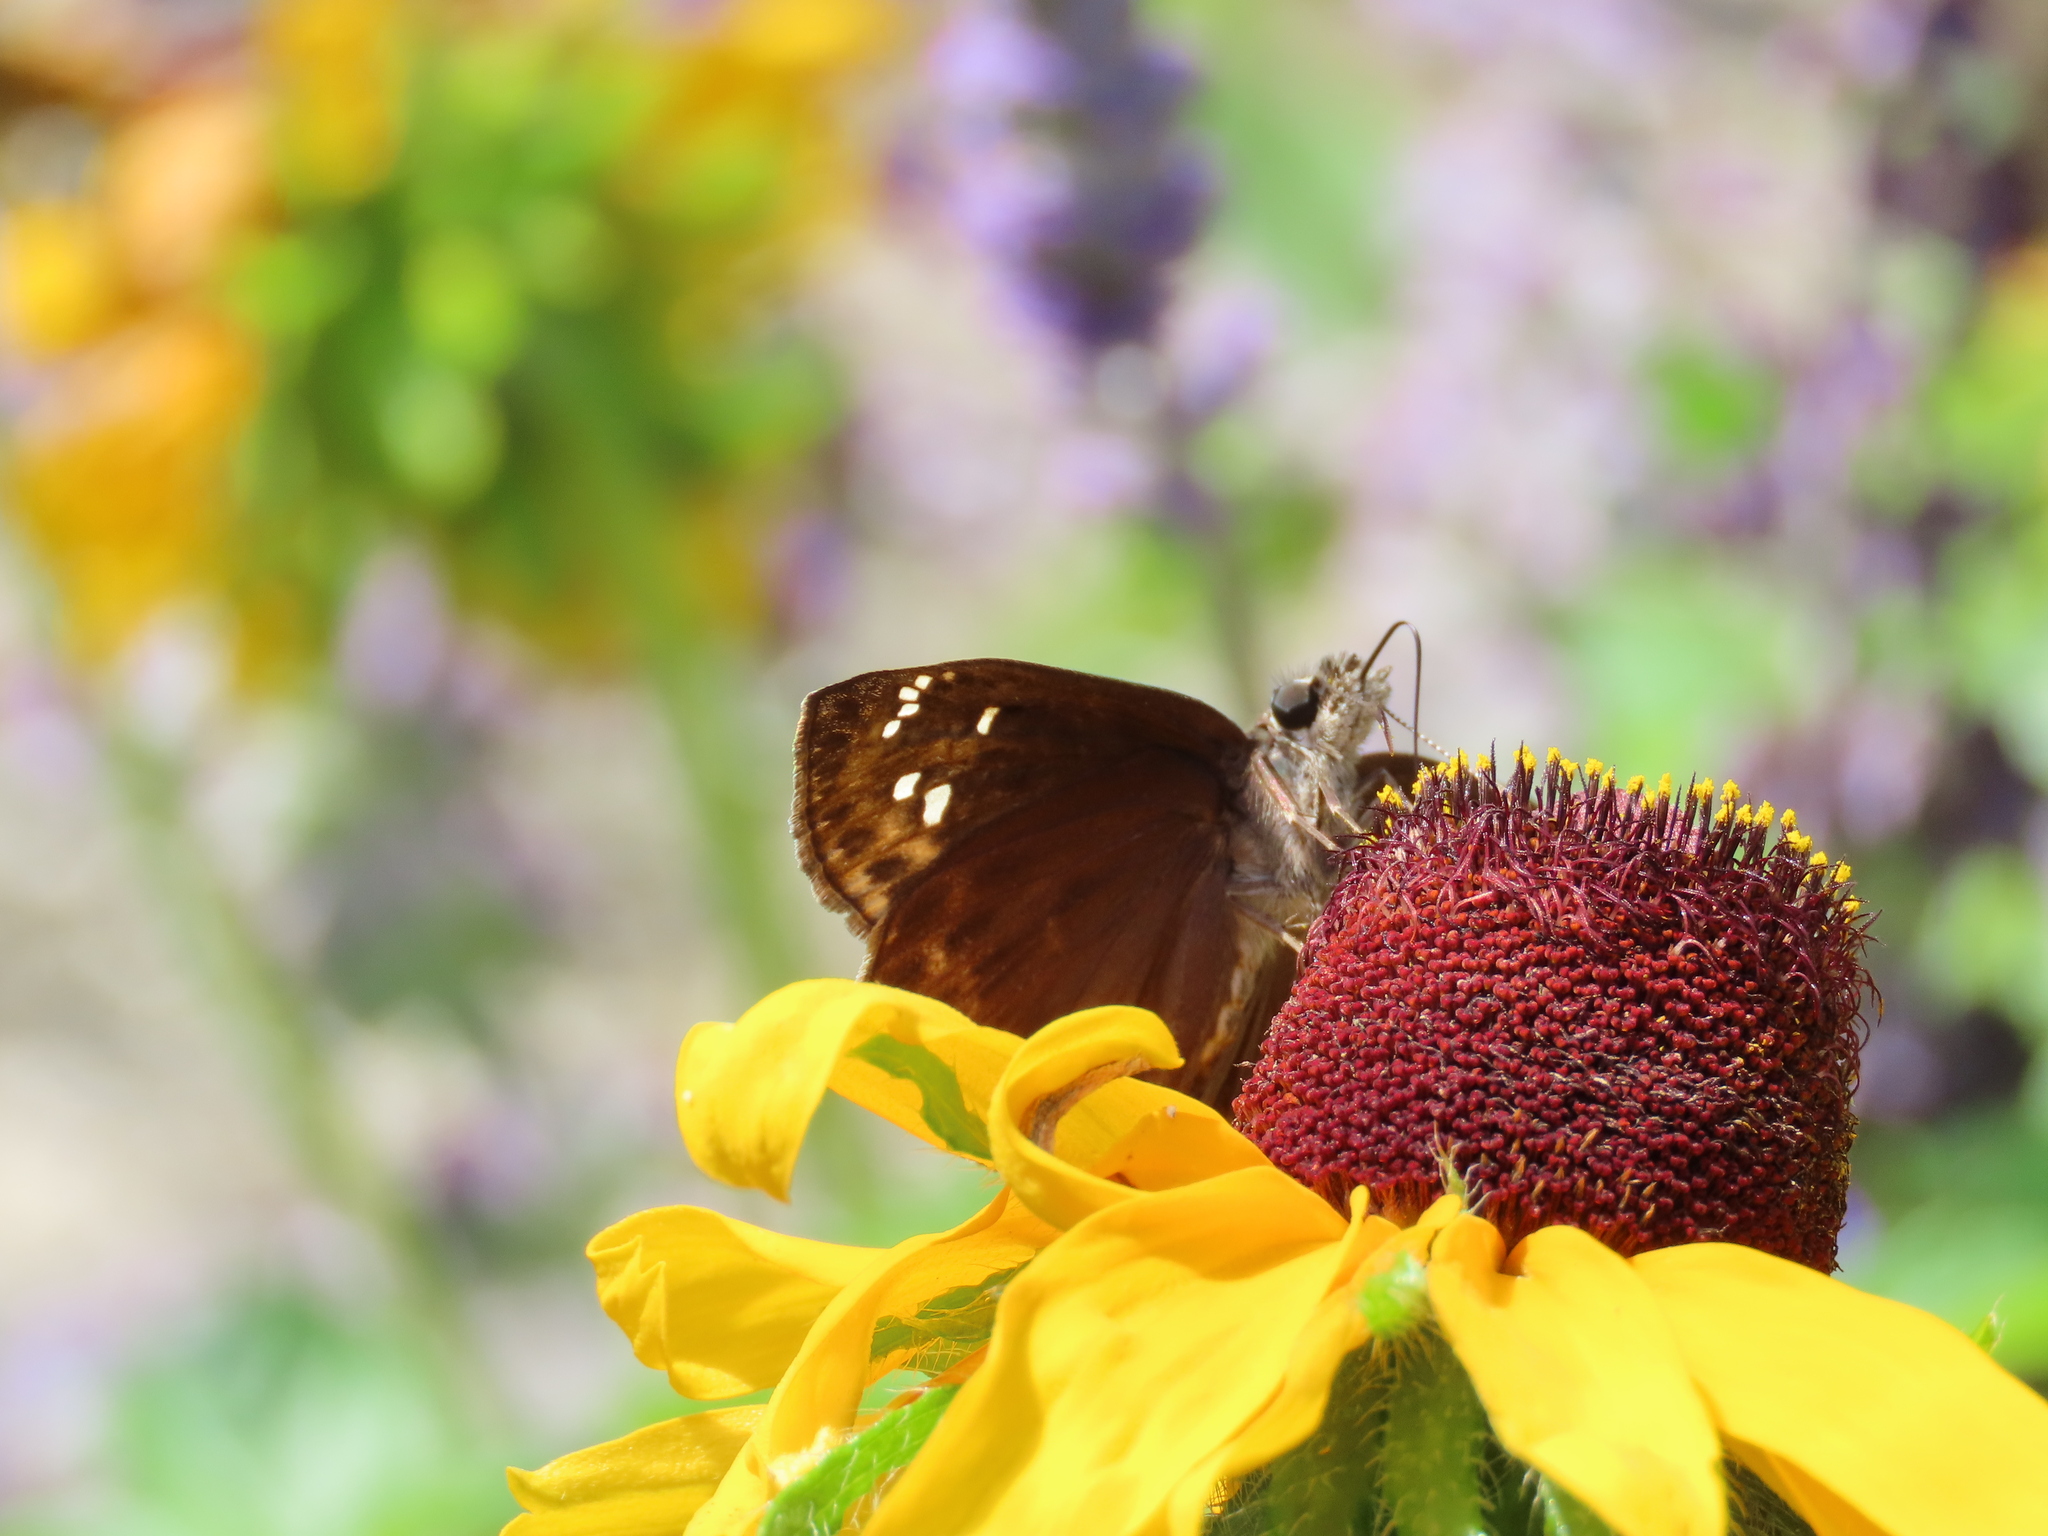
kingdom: Animalia
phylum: Arthropoda
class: Insecta
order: Lepidoptera
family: Hesperiidae
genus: Erynnis
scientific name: Erynnis horatius
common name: Horace's duskywing
